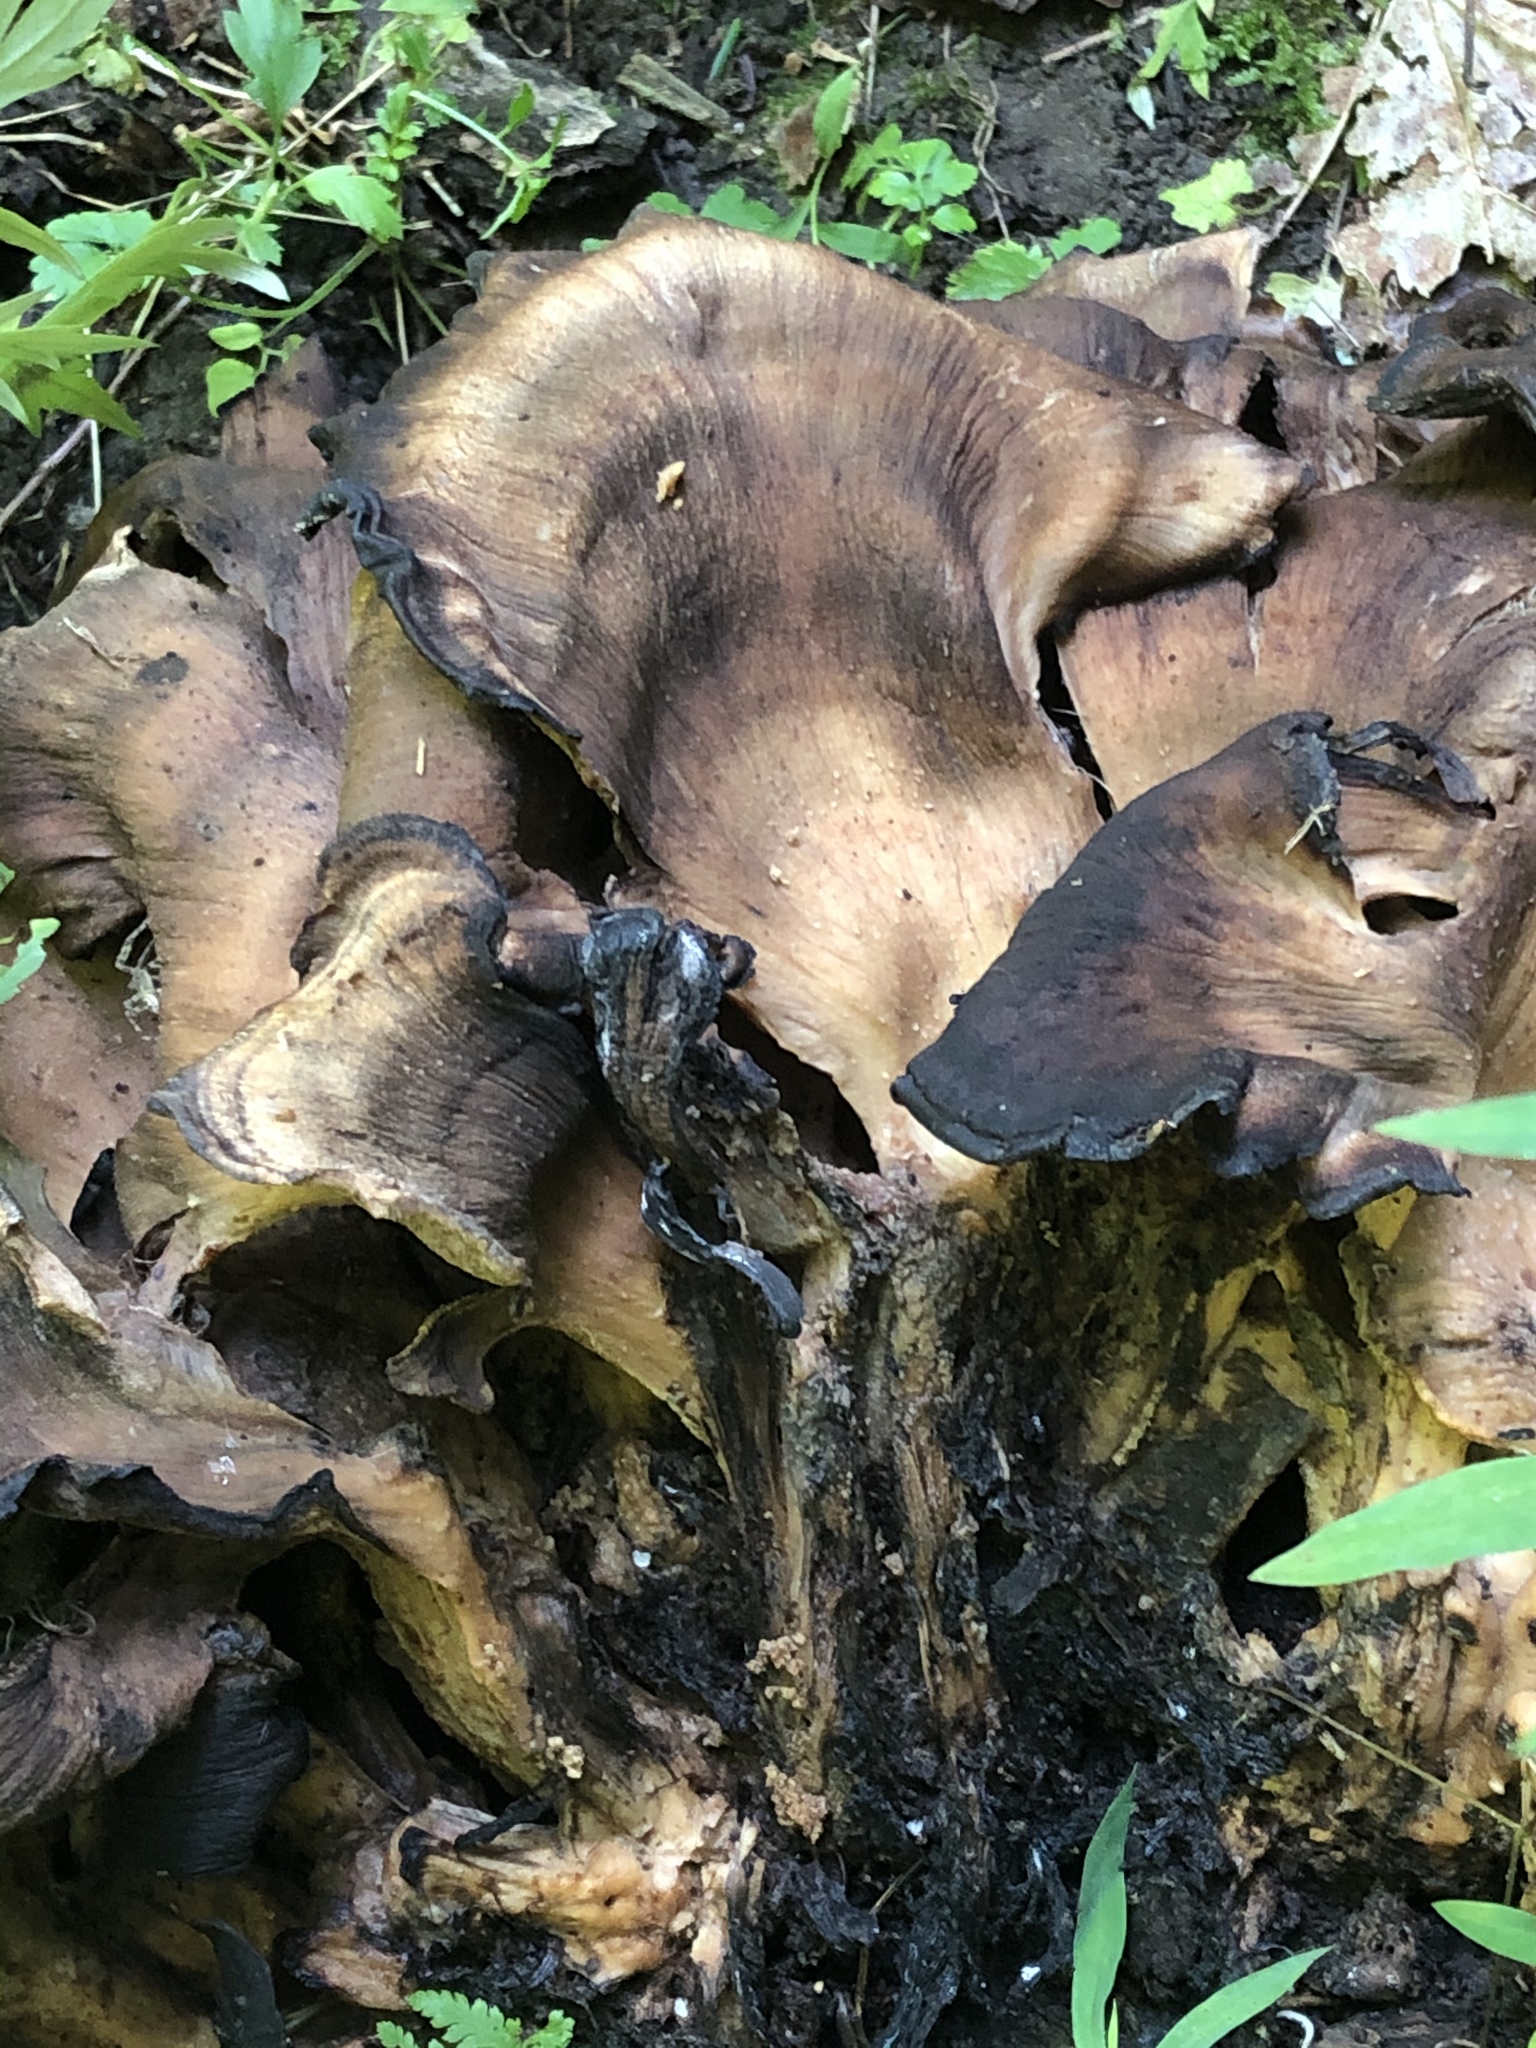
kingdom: Fungi
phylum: Basidiomycota
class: Agaricomycetes
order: Polyporales
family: Meripilaceae
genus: Meripilus
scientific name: Meripilus sumstinei
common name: Black-staining polypore
